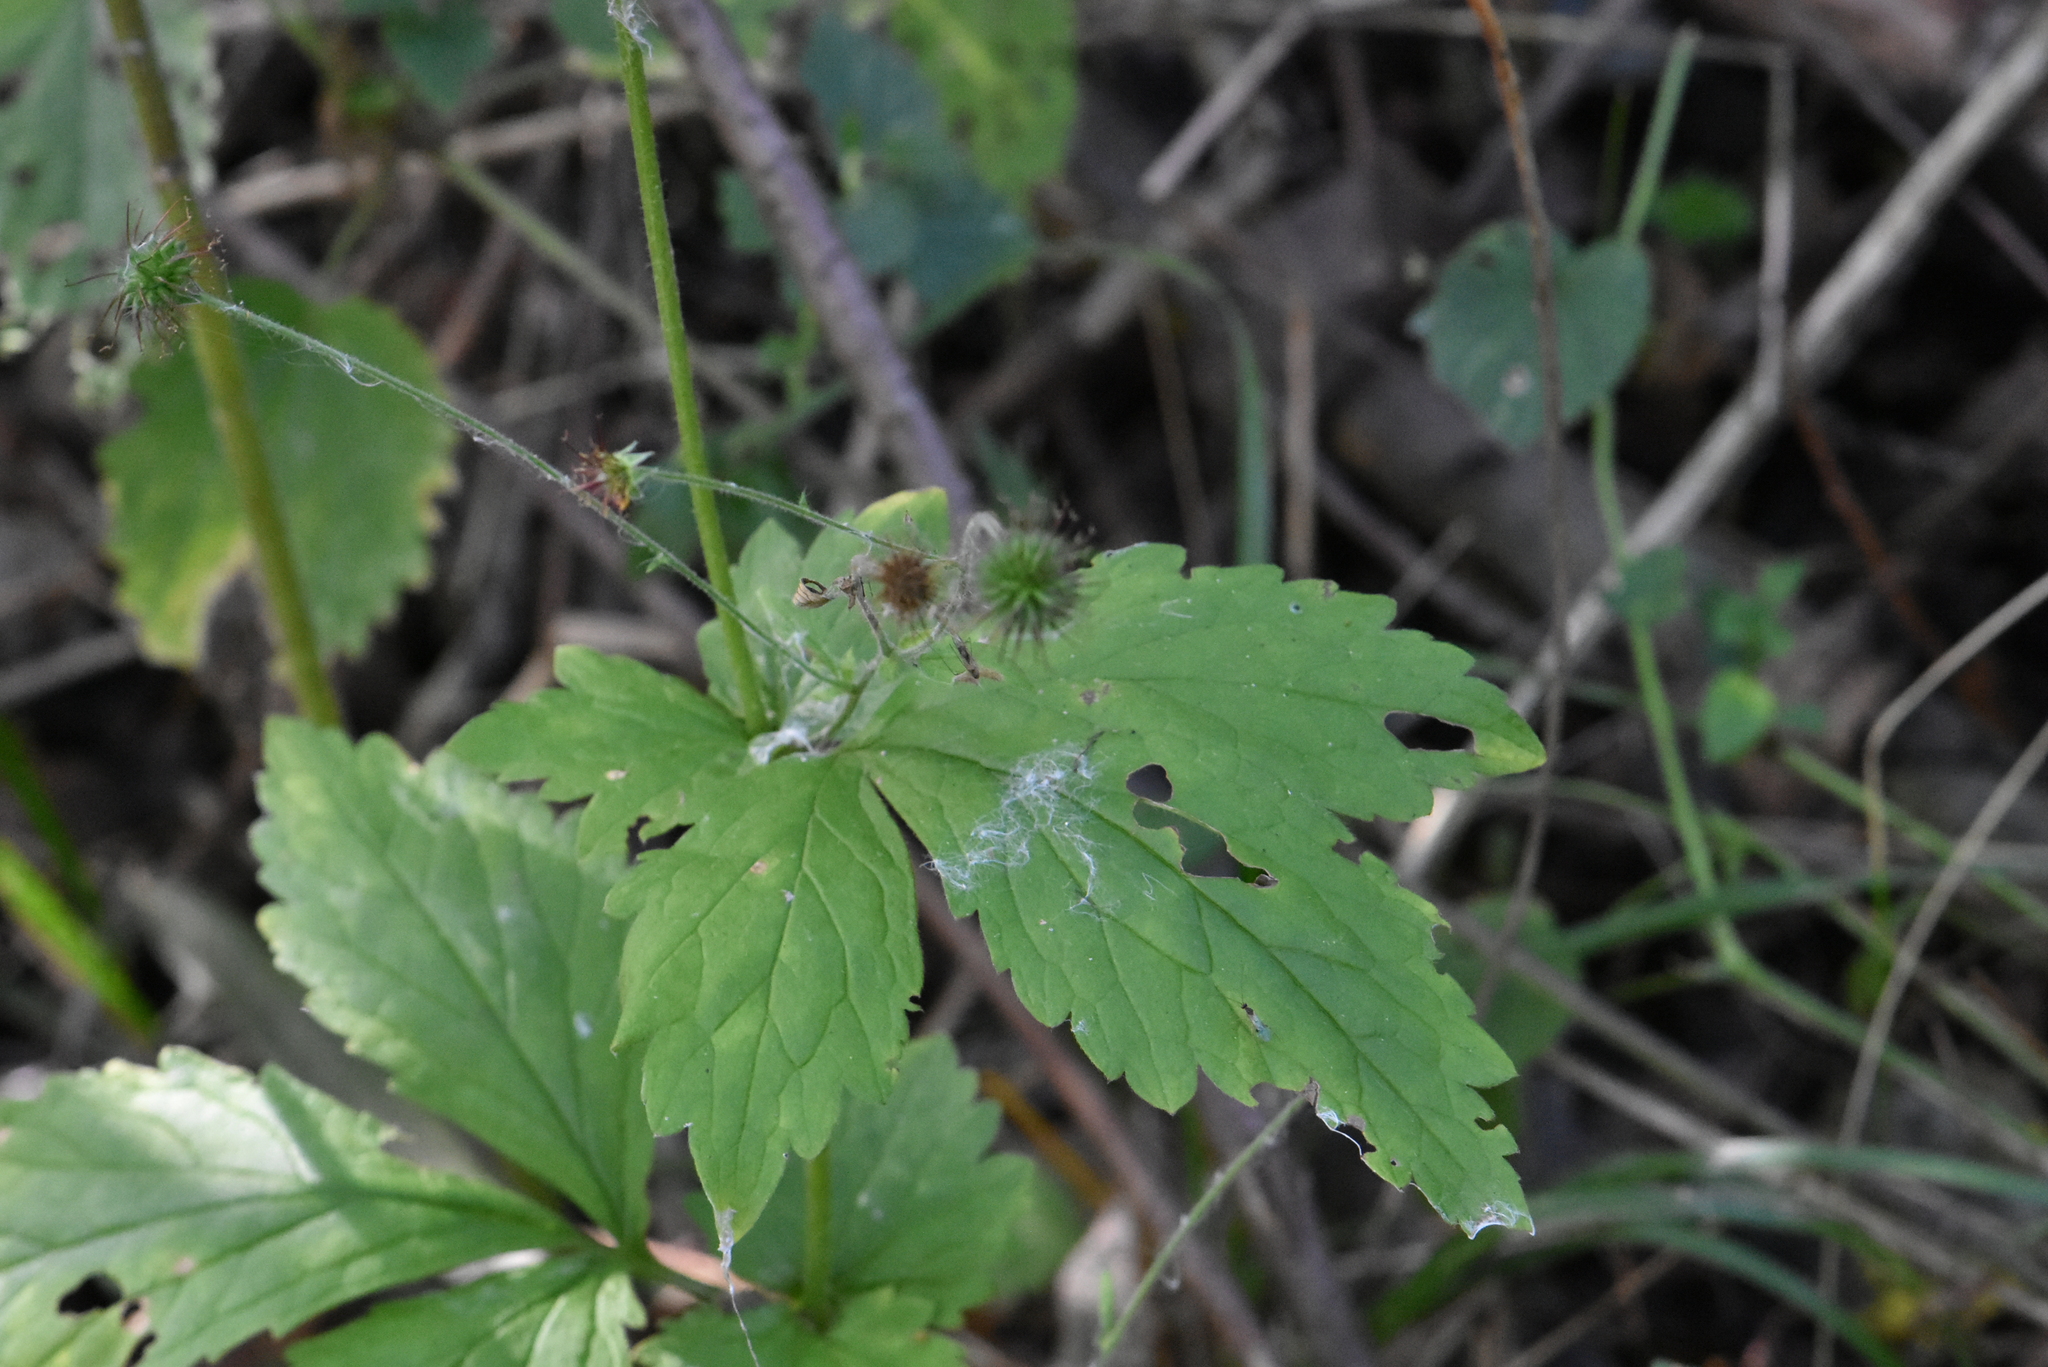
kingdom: Plantae
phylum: Tracheophyta
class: Magnoliopsida
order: Rosales
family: Rosaceae
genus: Geum
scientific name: Geum urbanum
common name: Wood avens
